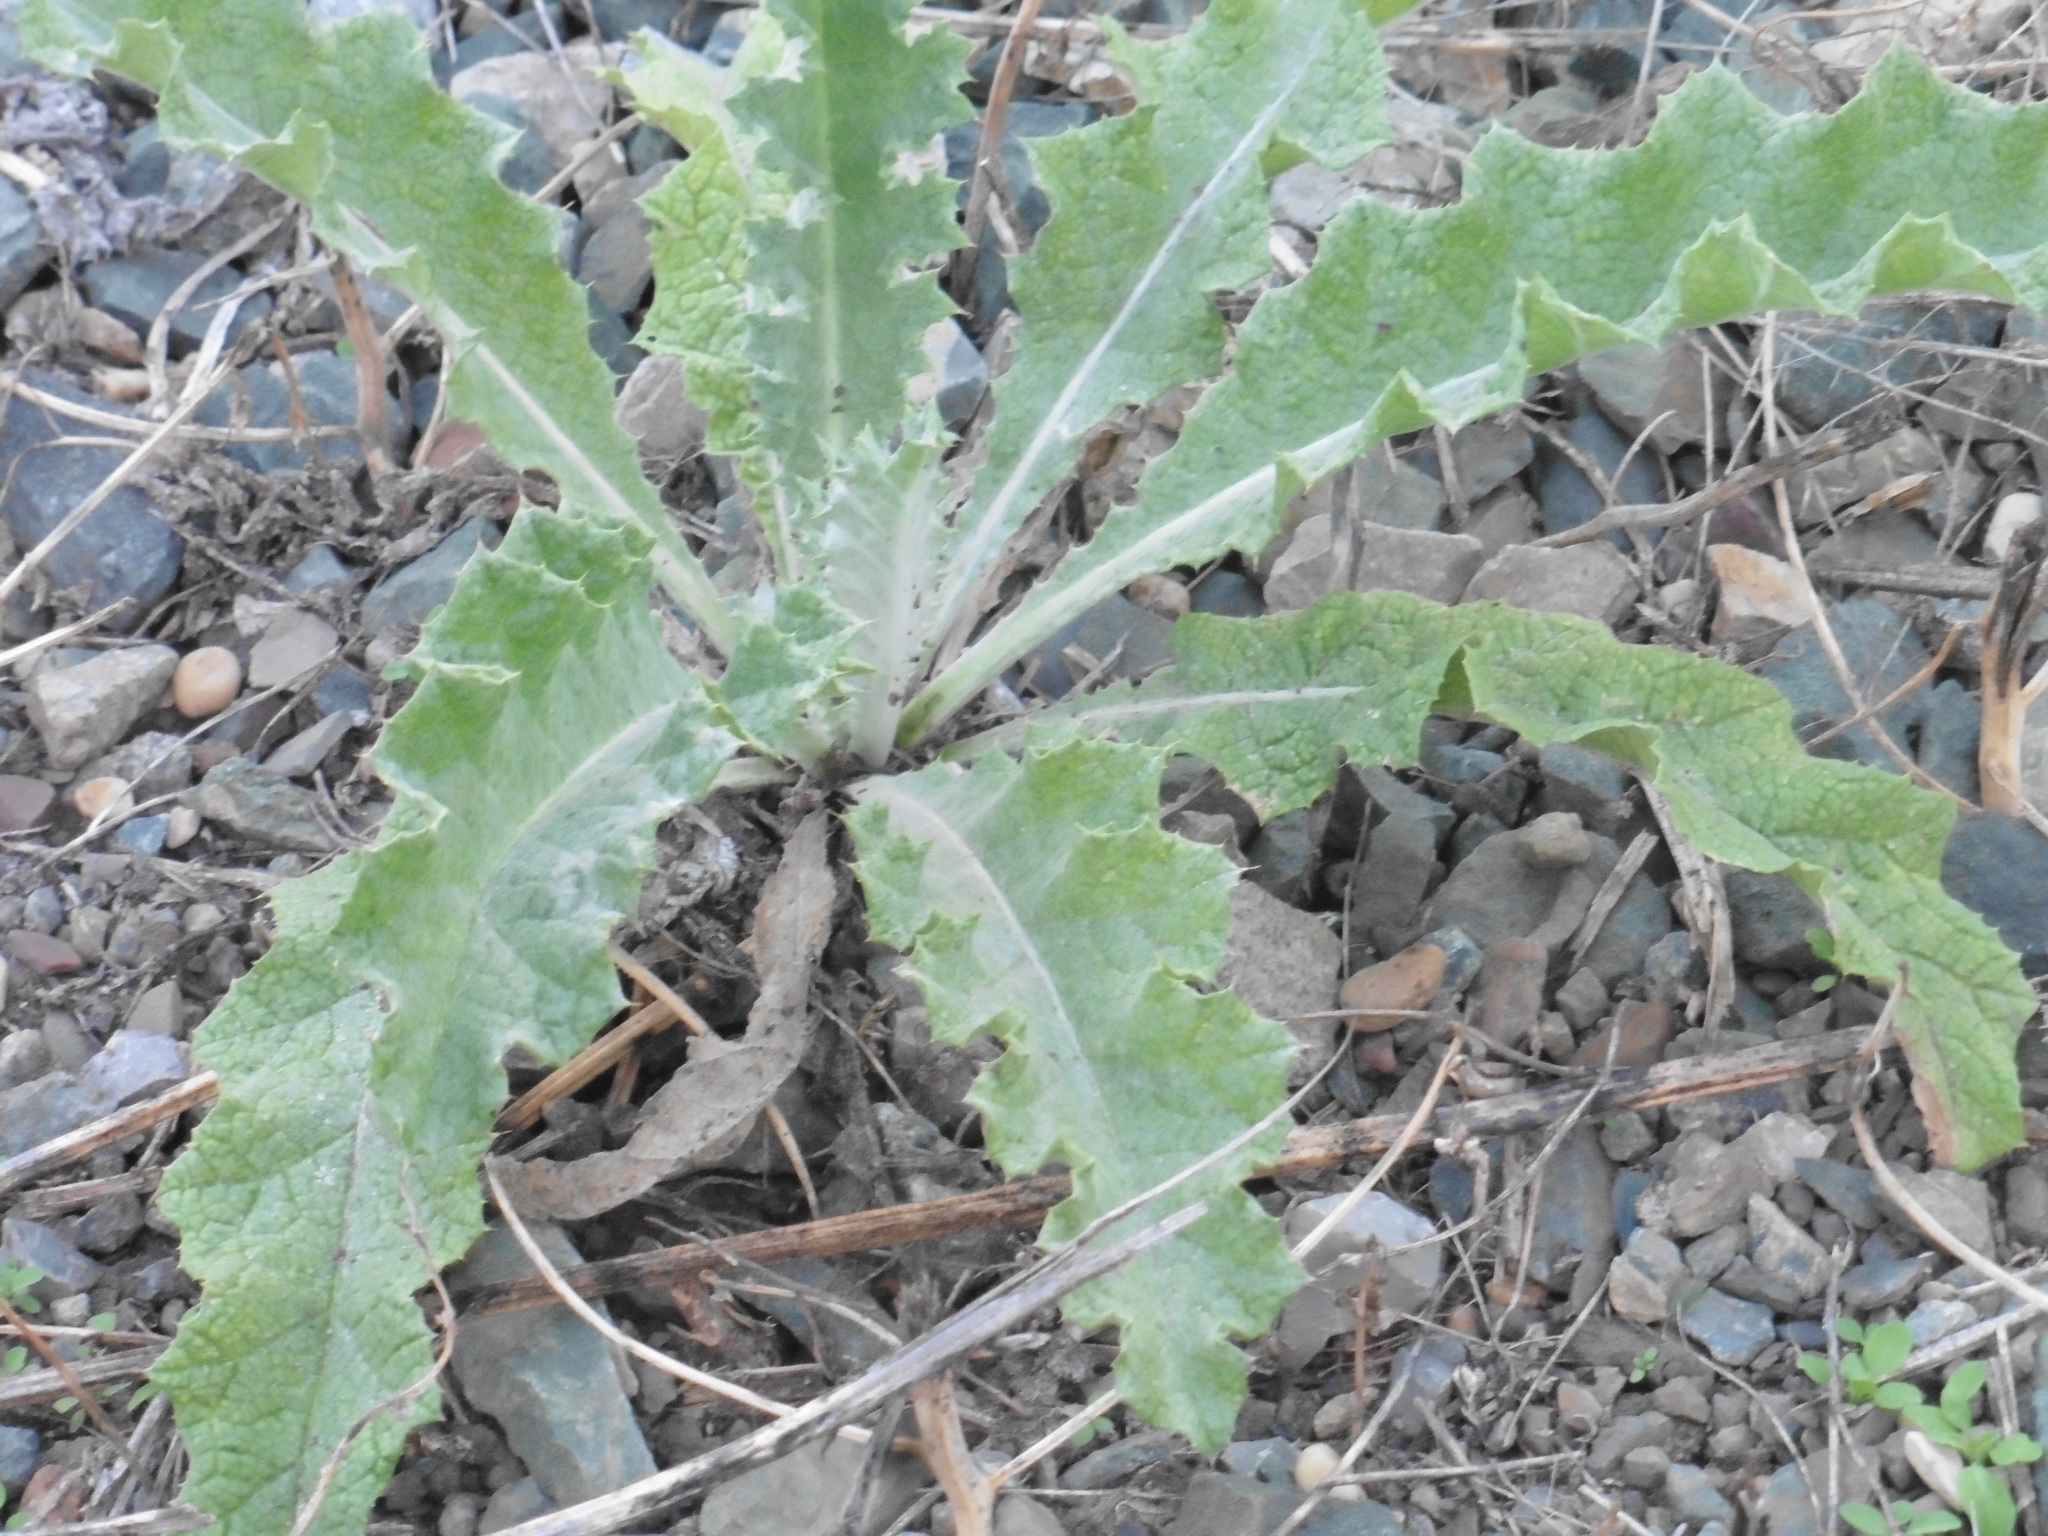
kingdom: Plantae
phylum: Tracheophyta
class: Magnoliopsida
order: Asterales
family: Asteraceae
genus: Onopordum
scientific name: Onopordum acanthium
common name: Scotch thistle
